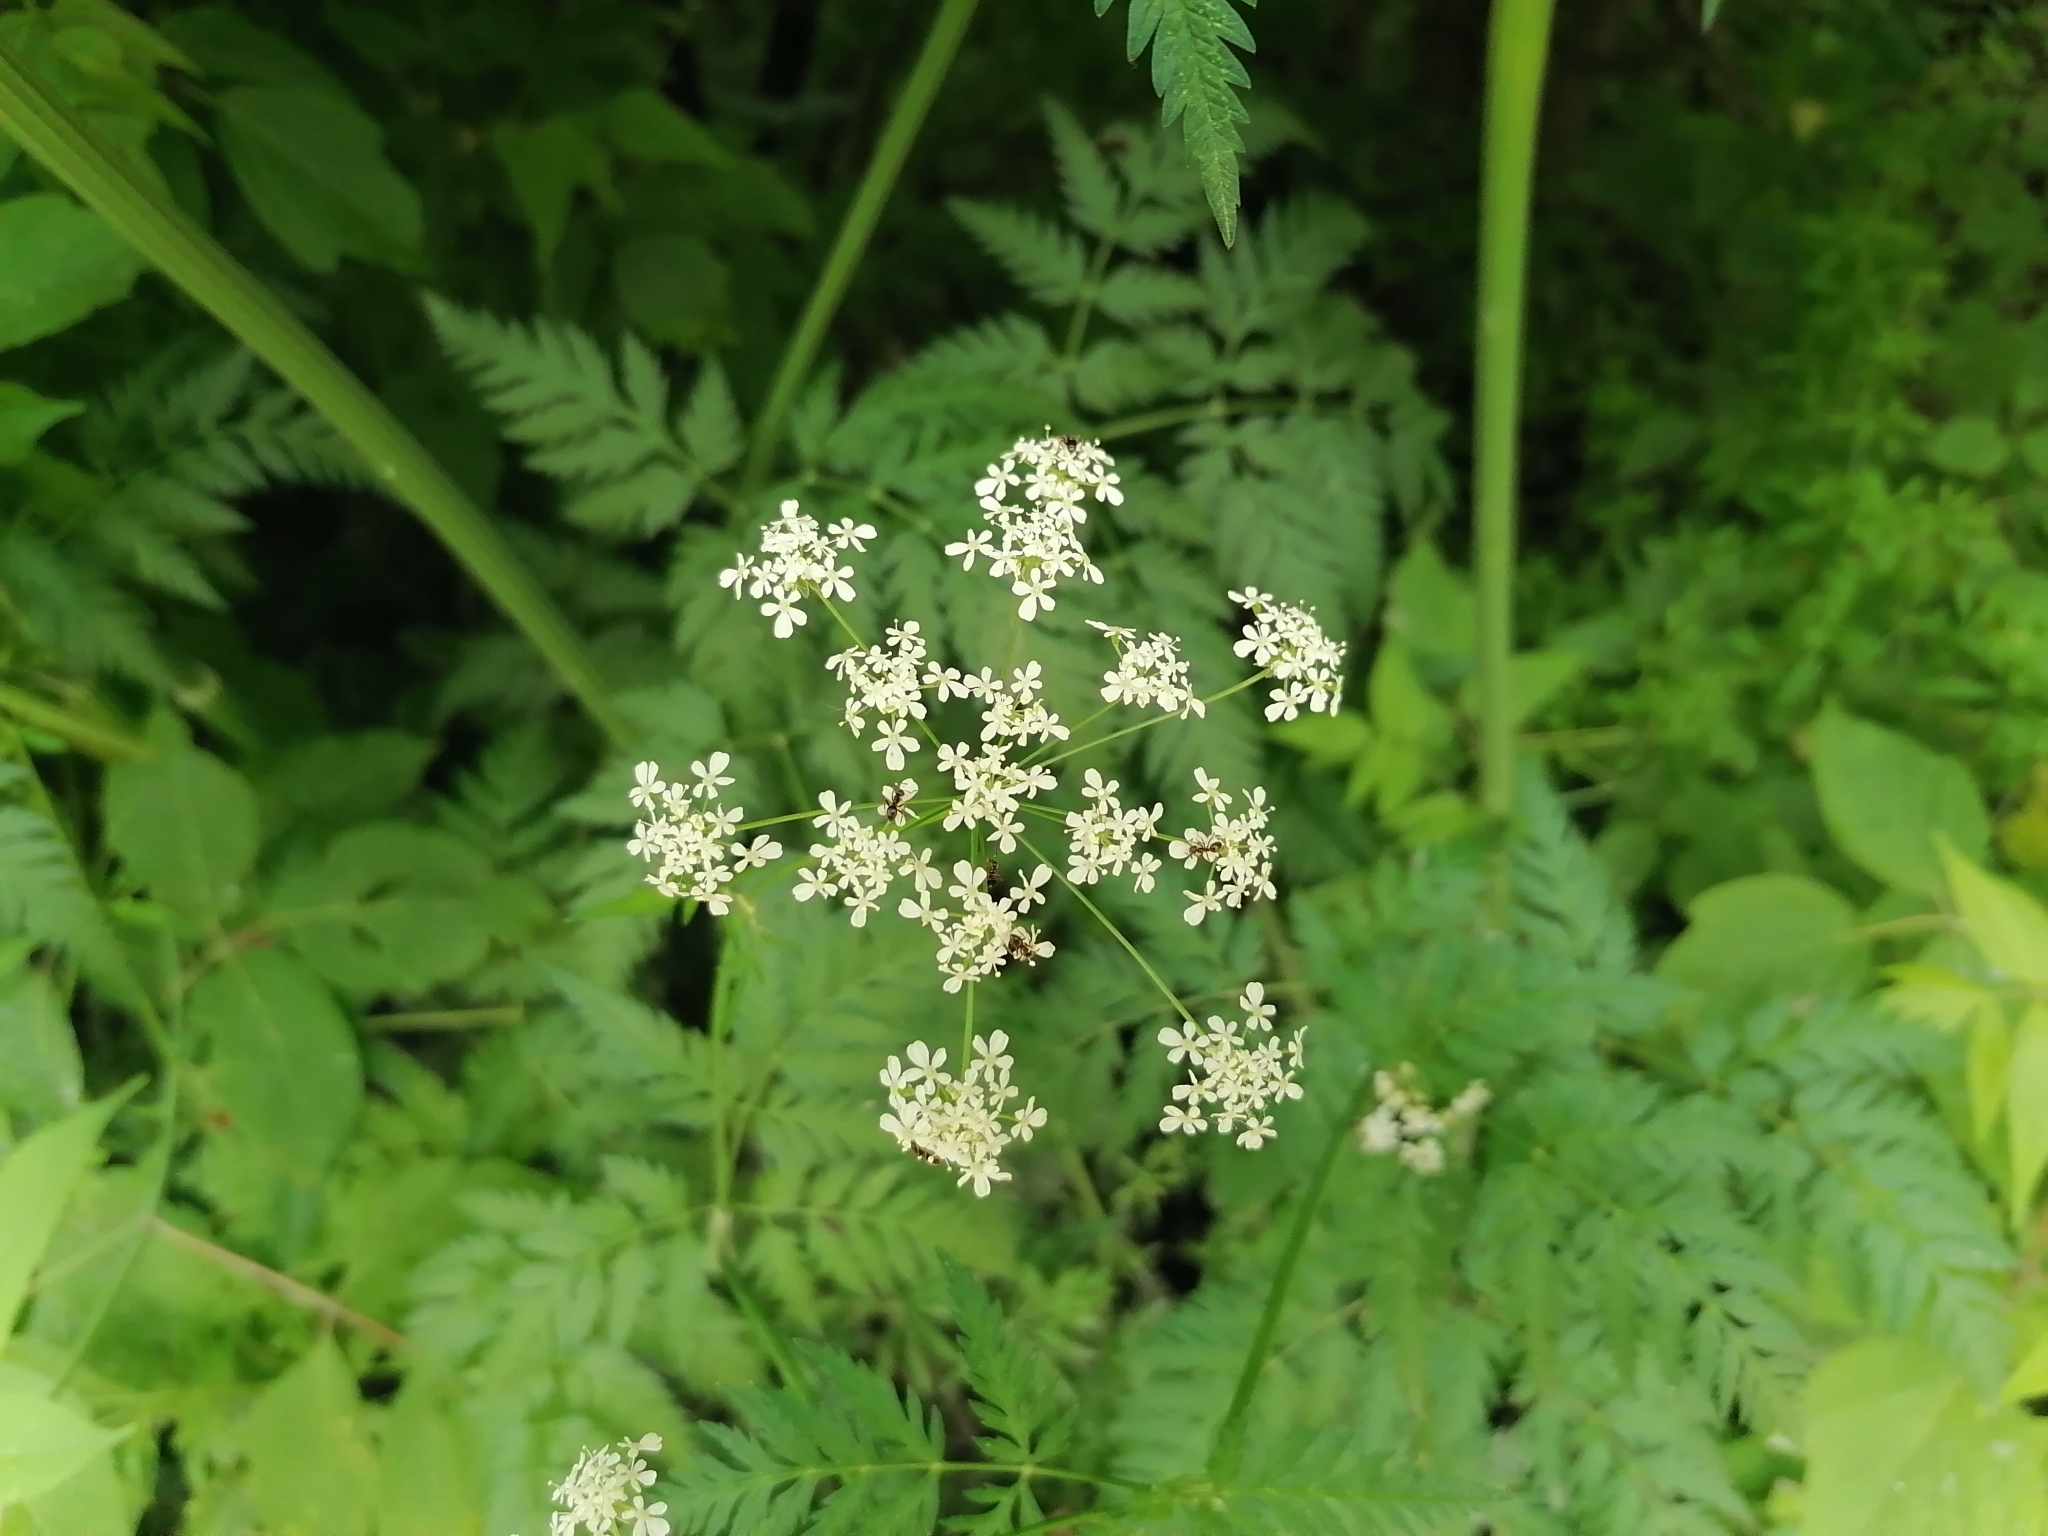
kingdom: Plantae
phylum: Tracheophyta
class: Magnoliopsida
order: Apiales
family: Apiaceae
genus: Anthriscus
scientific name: Anthriscus sylvestris
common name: Cow parsley
